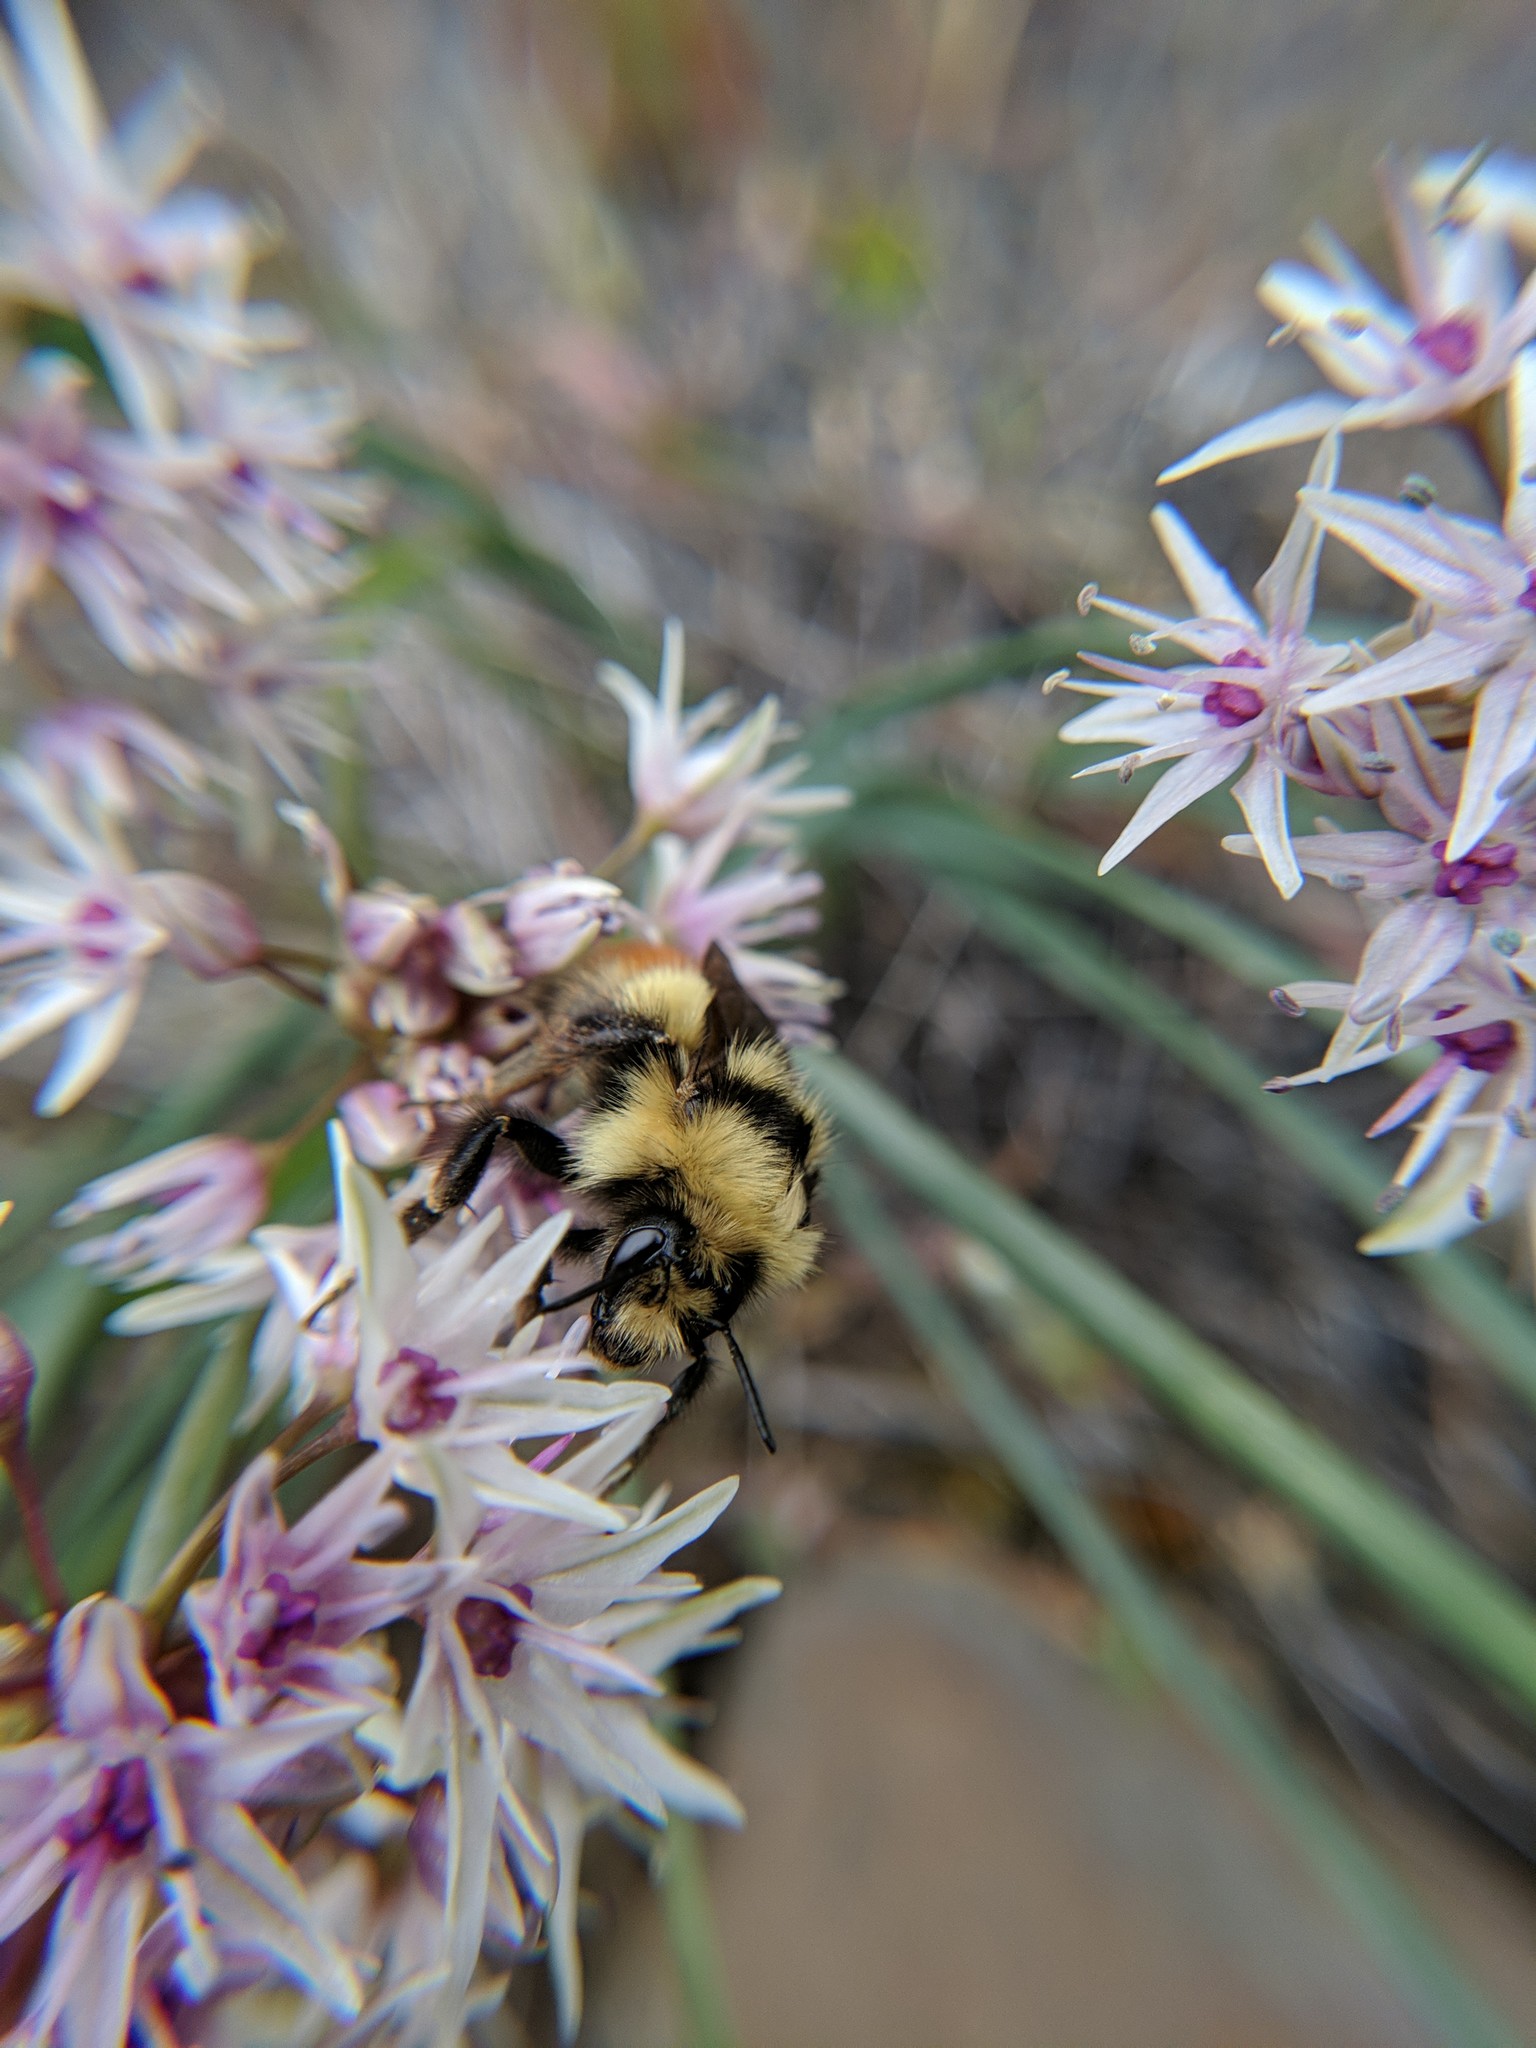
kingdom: Animalia
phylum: Arthropoda
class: Insecta
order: Hymenoptera
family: Apidae
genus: Bombus
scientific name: Bombus centralis
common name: Central bumble bee
